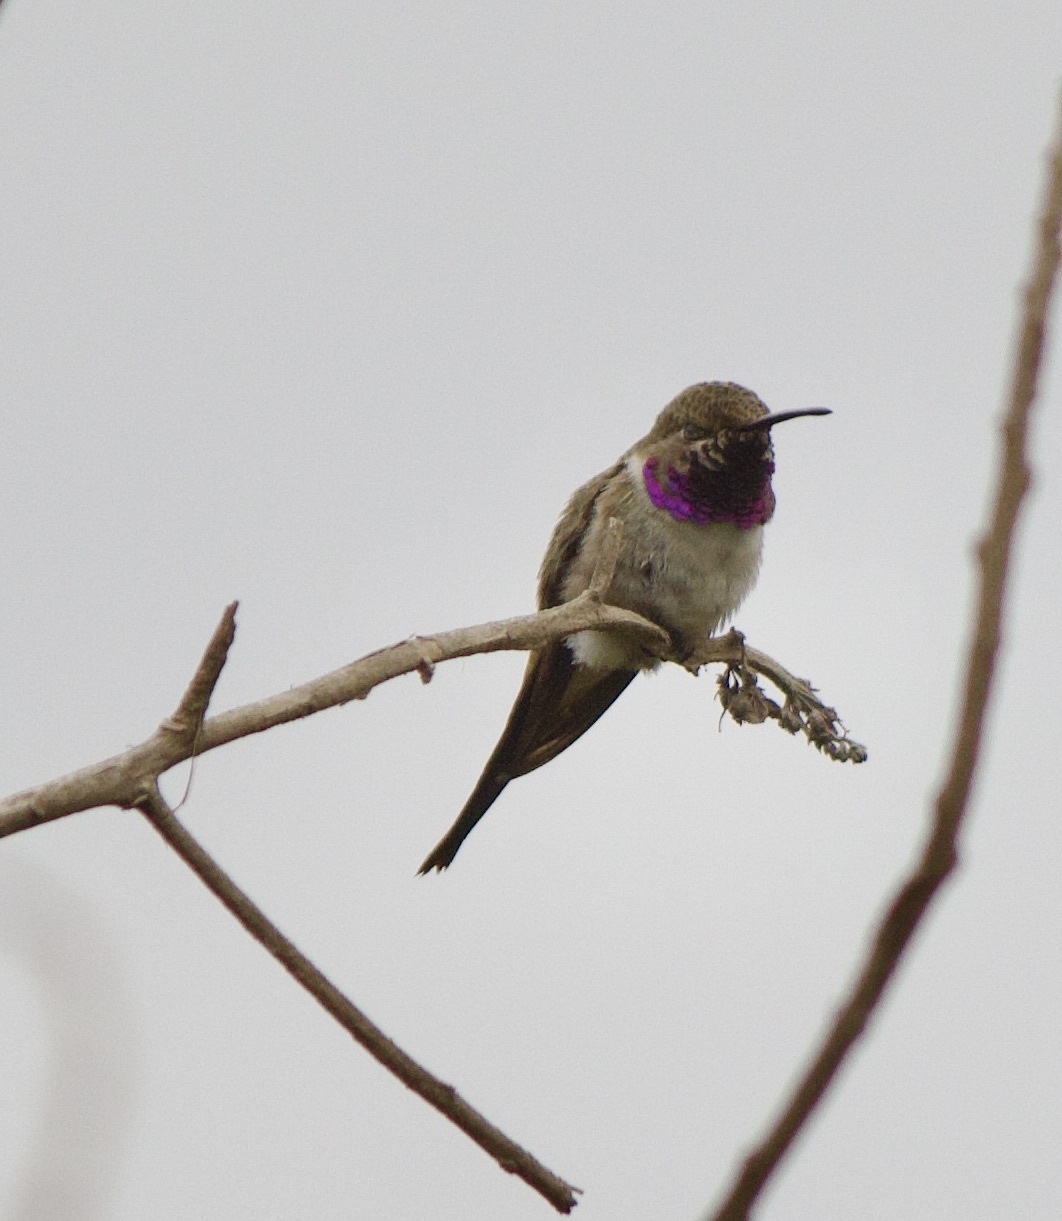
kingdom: Animalia
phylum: Chordata
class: Aves
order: Apodiformes
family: Trochilidae
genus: Rhodopis
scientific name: Rhodopis vesper
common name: Oasis hummingbird
